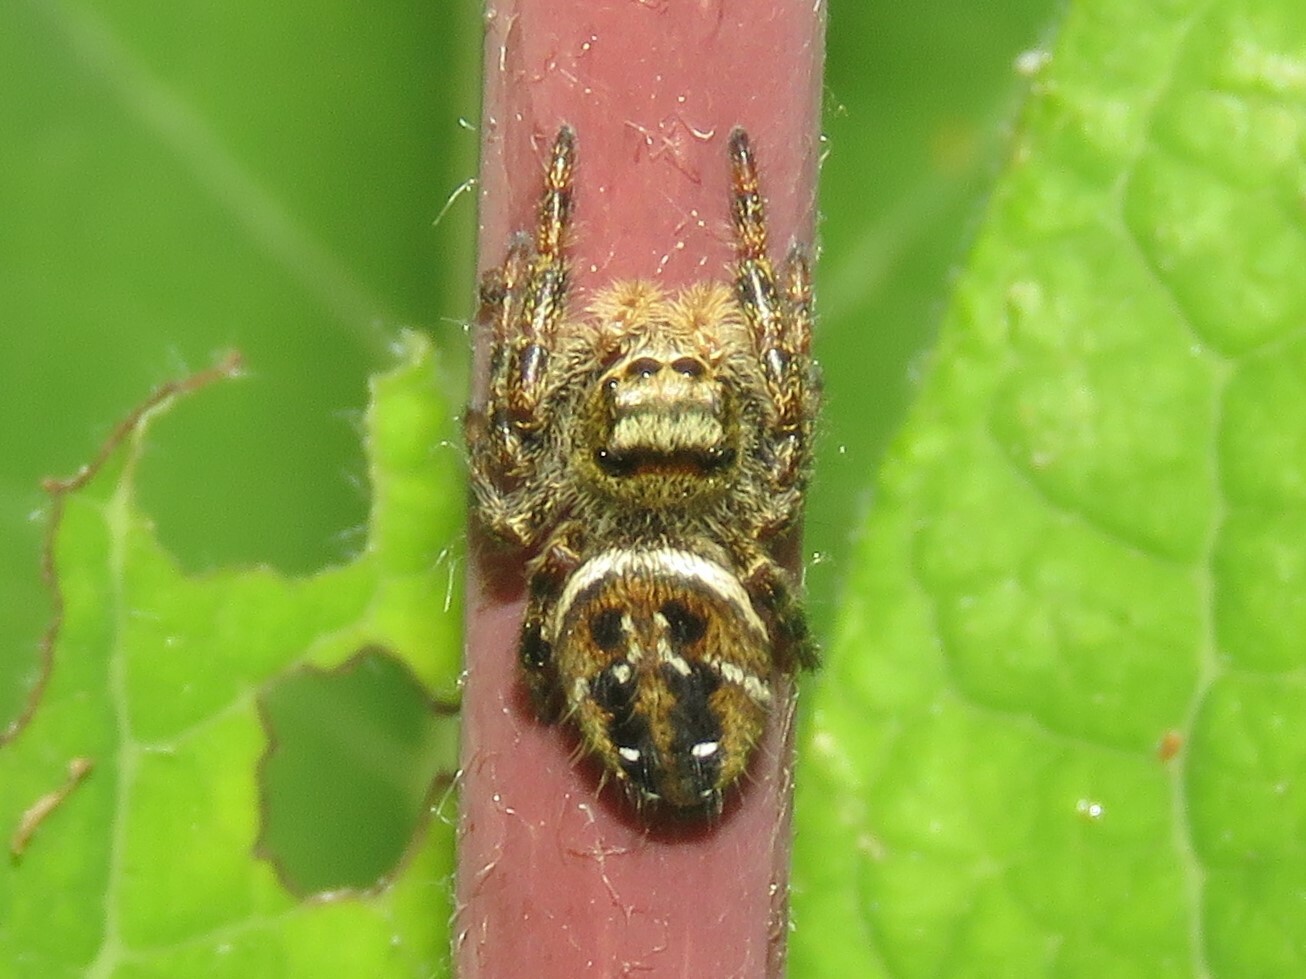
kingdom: Animalia
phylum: Arthropoda
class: Arachnida
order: Araneae
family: Salticidae
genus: Phidippus
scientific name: Phidippus clarus
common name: Brilliant jumping spider
